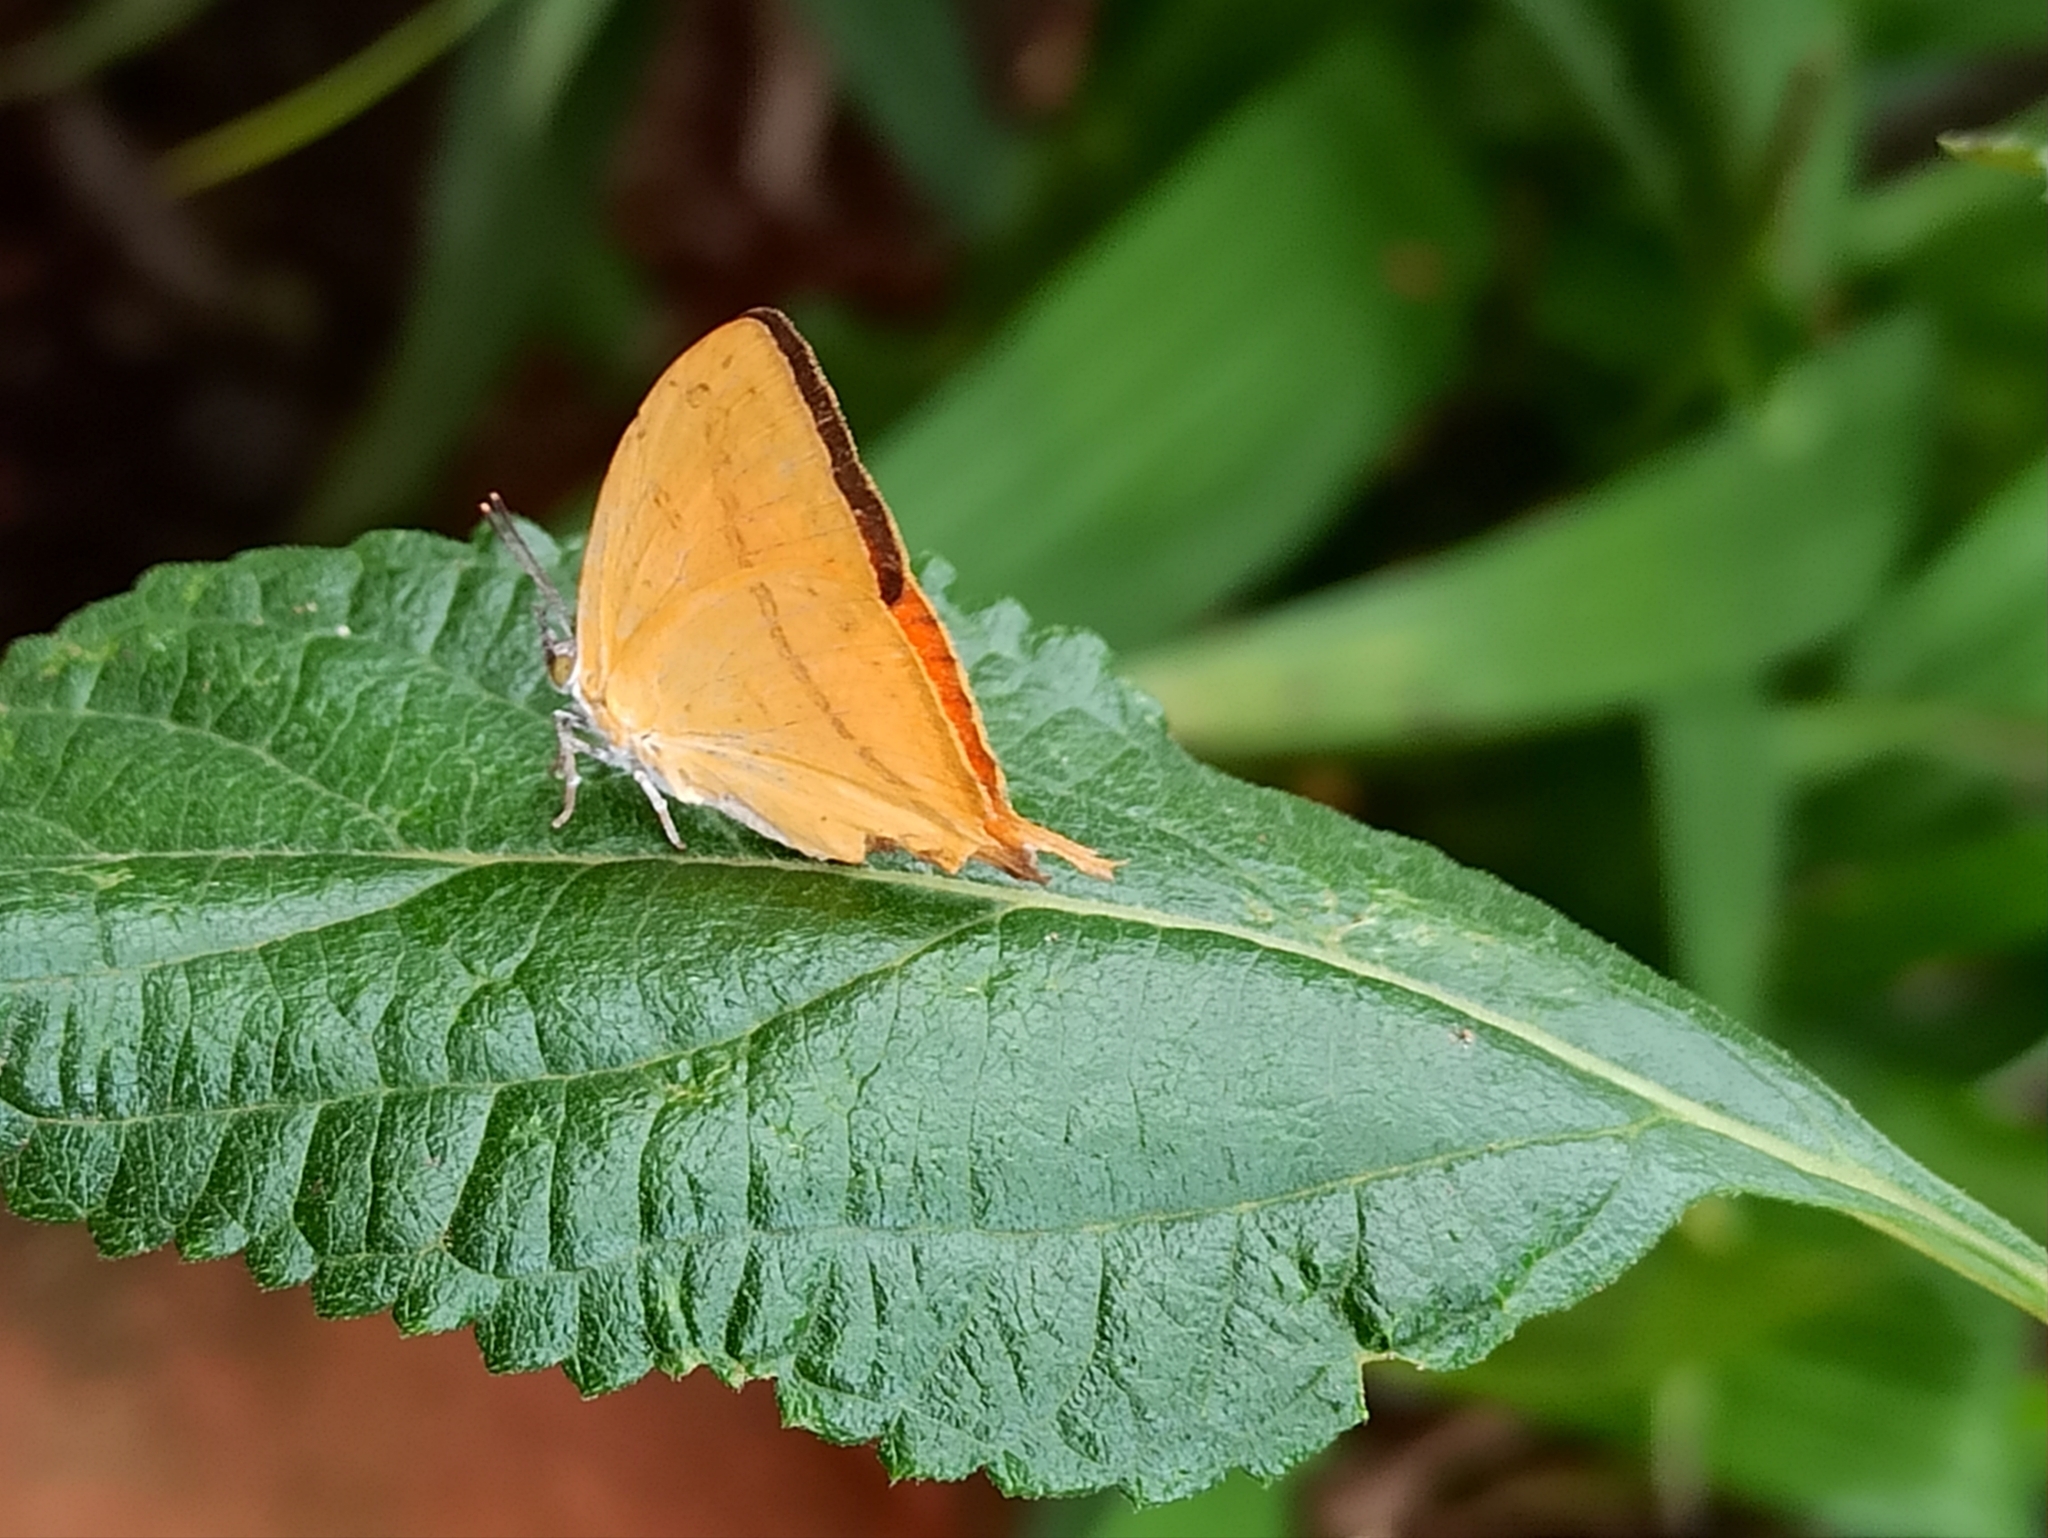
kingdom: Animalia
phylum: Arthropoda
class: Insecta
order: Lepidoptera
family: Lycaenidae
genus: Loxura
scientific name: Loxura atymnus
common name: Common yamfly
